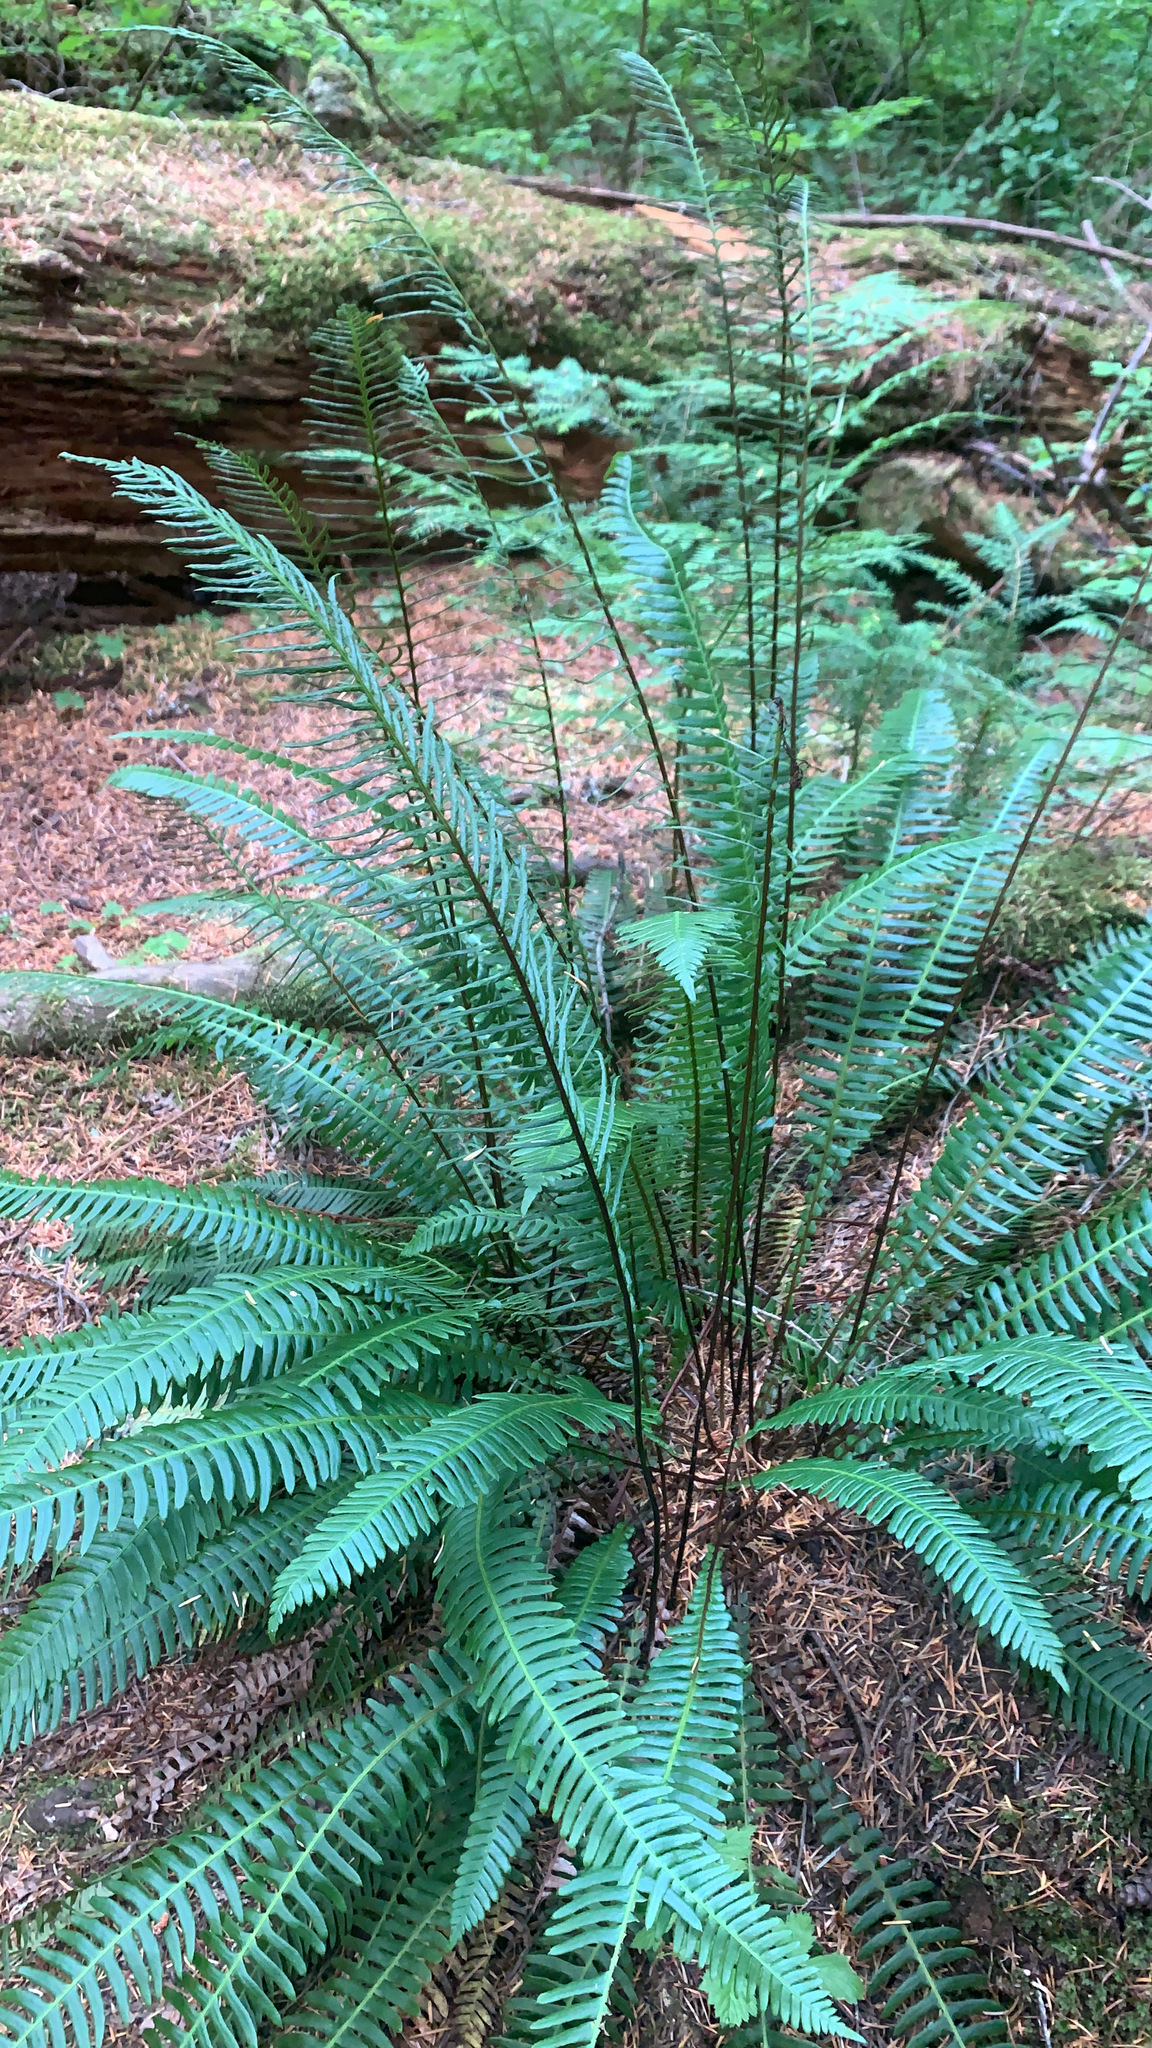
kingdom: Plantae
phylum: Tracheophyta
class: Polypodiopsida
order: Polypodiales
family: Blechnaceae
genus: Struthiopteris
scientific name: Struthiopteris spicant
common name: Deer fern
